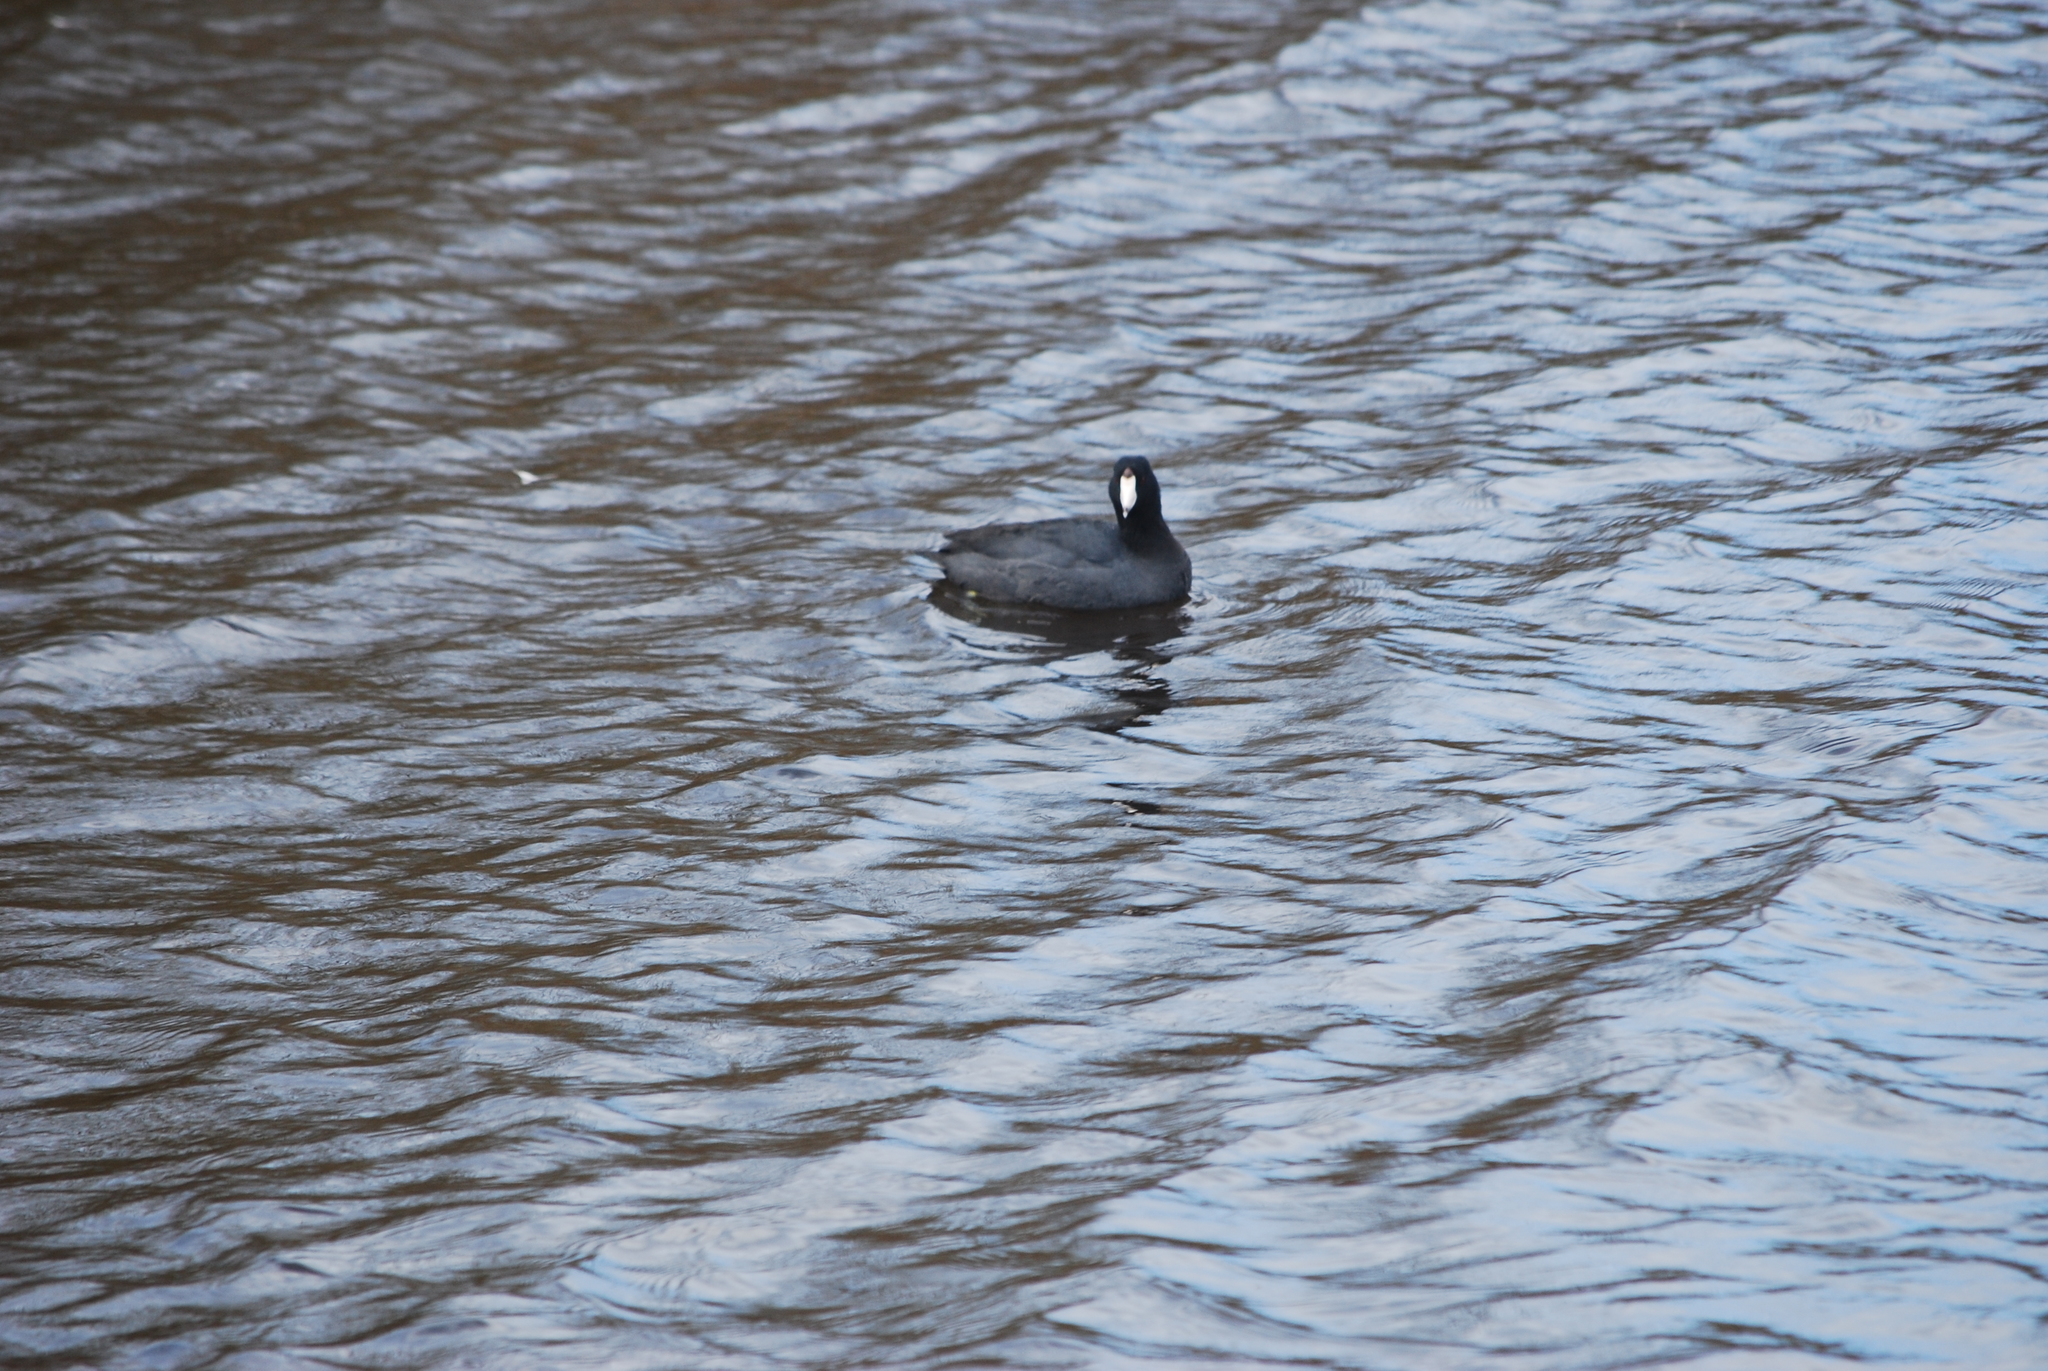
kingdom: Animalia
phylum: Chordata
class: Aves
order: Gruiformes
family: Rallidae
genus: Fulica
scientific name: Fulica americana
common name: American coot
